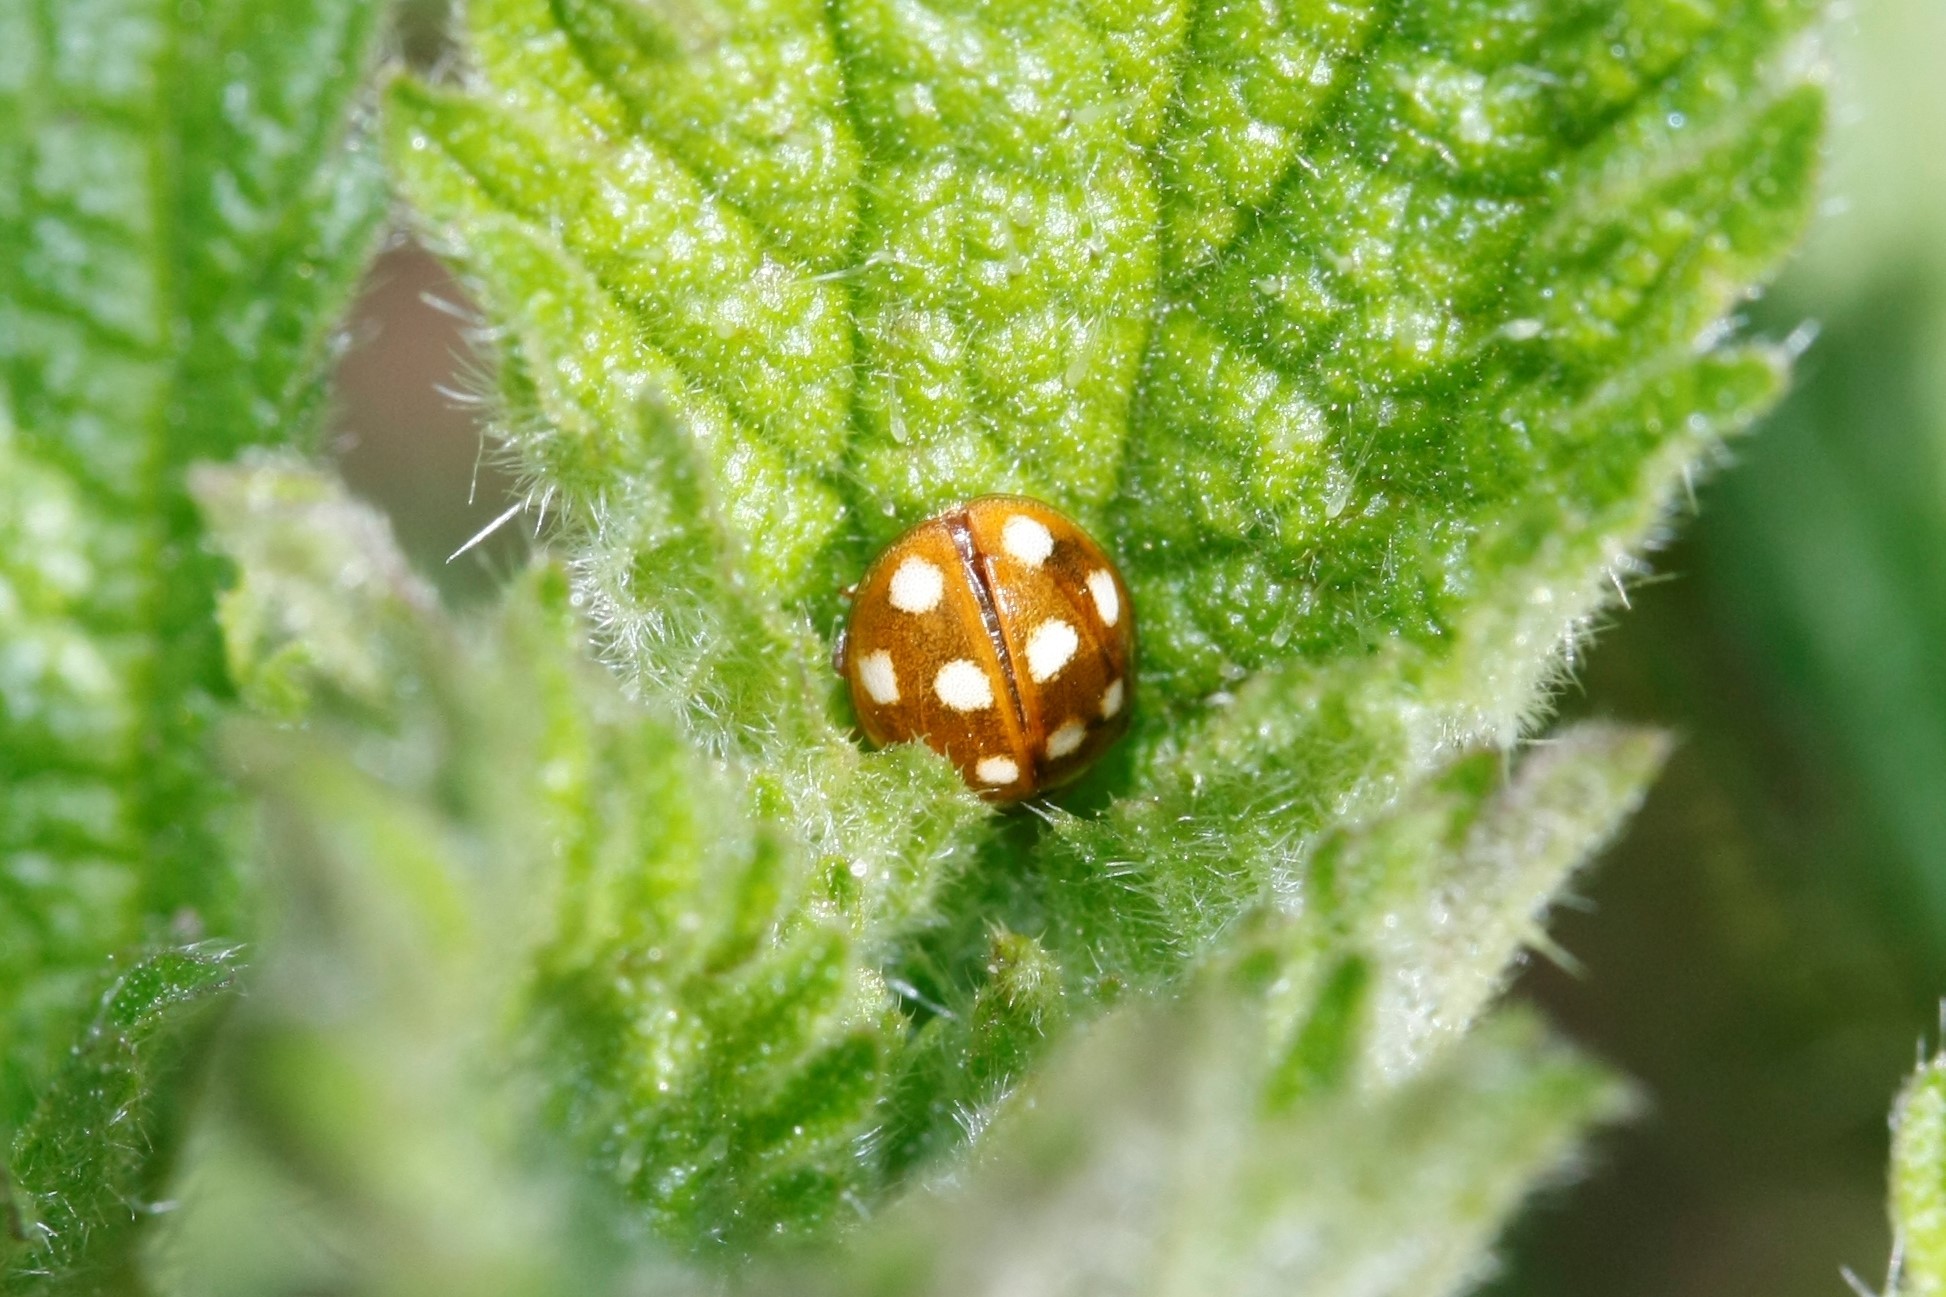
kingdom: Animalia
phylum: Arthropoda
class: Insecta
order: Coleoptera
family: Coccinellidae
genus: Calvia
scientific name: Calvia quatuordecimguttata
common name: Cream-spot ladybird
